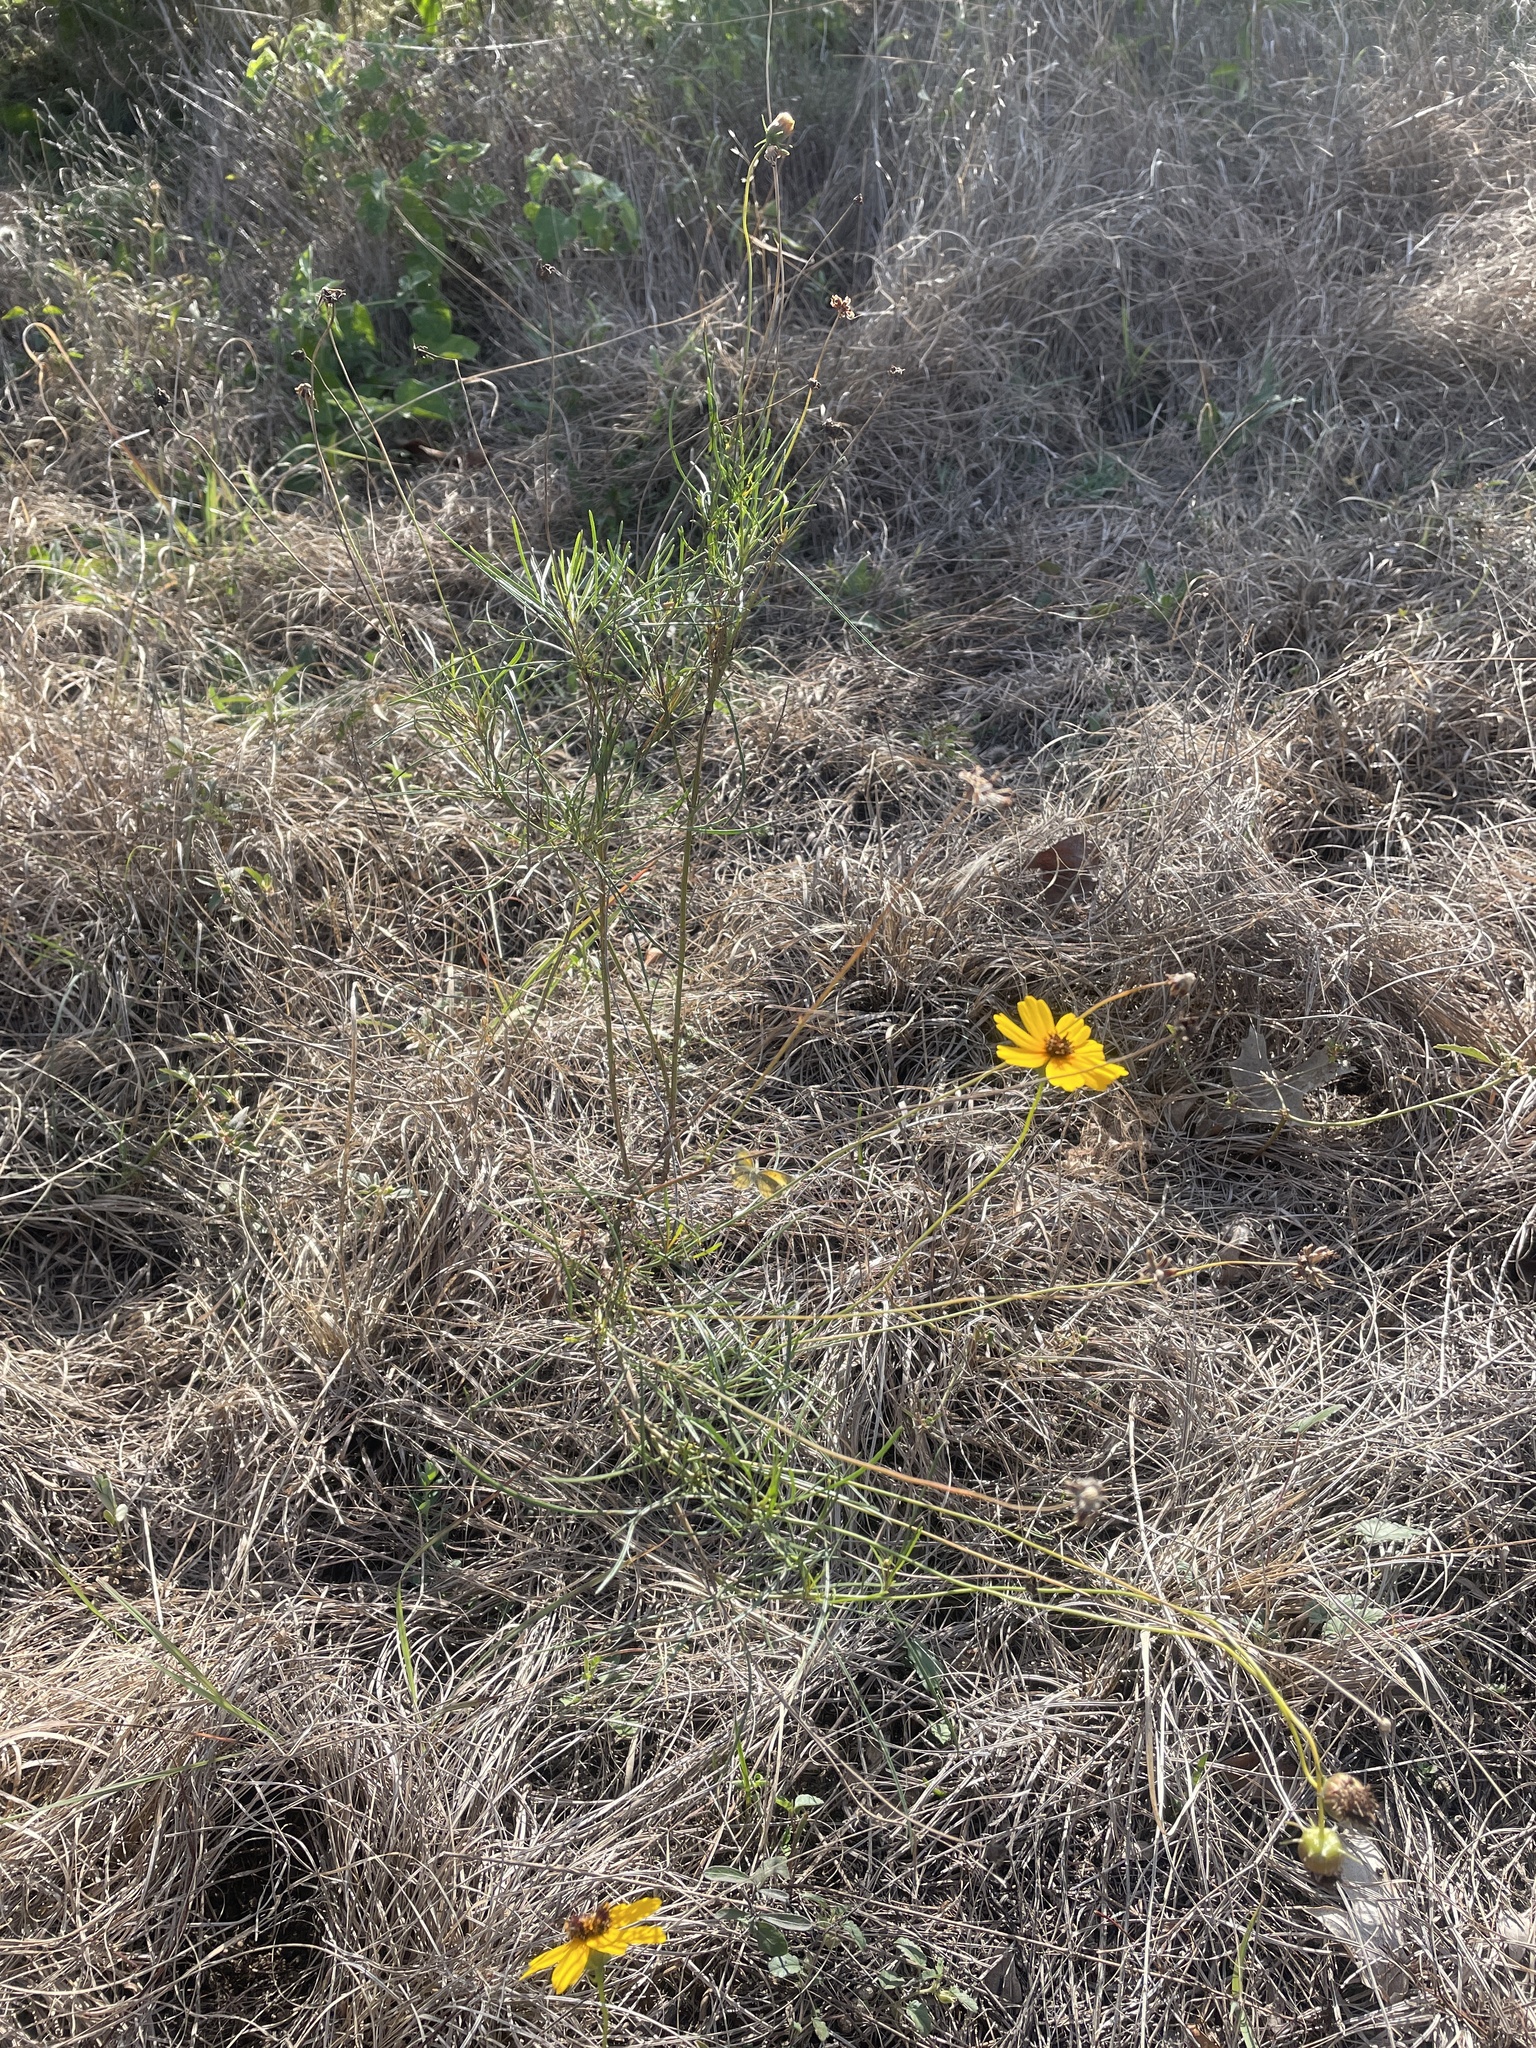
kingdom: Plantae
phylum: Tracheophyta
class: Magnoliopsida
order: Asterales
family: Asteraceae
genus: Thelesperma
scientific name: Thelesperma filifolium
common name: Stiff greenthread
